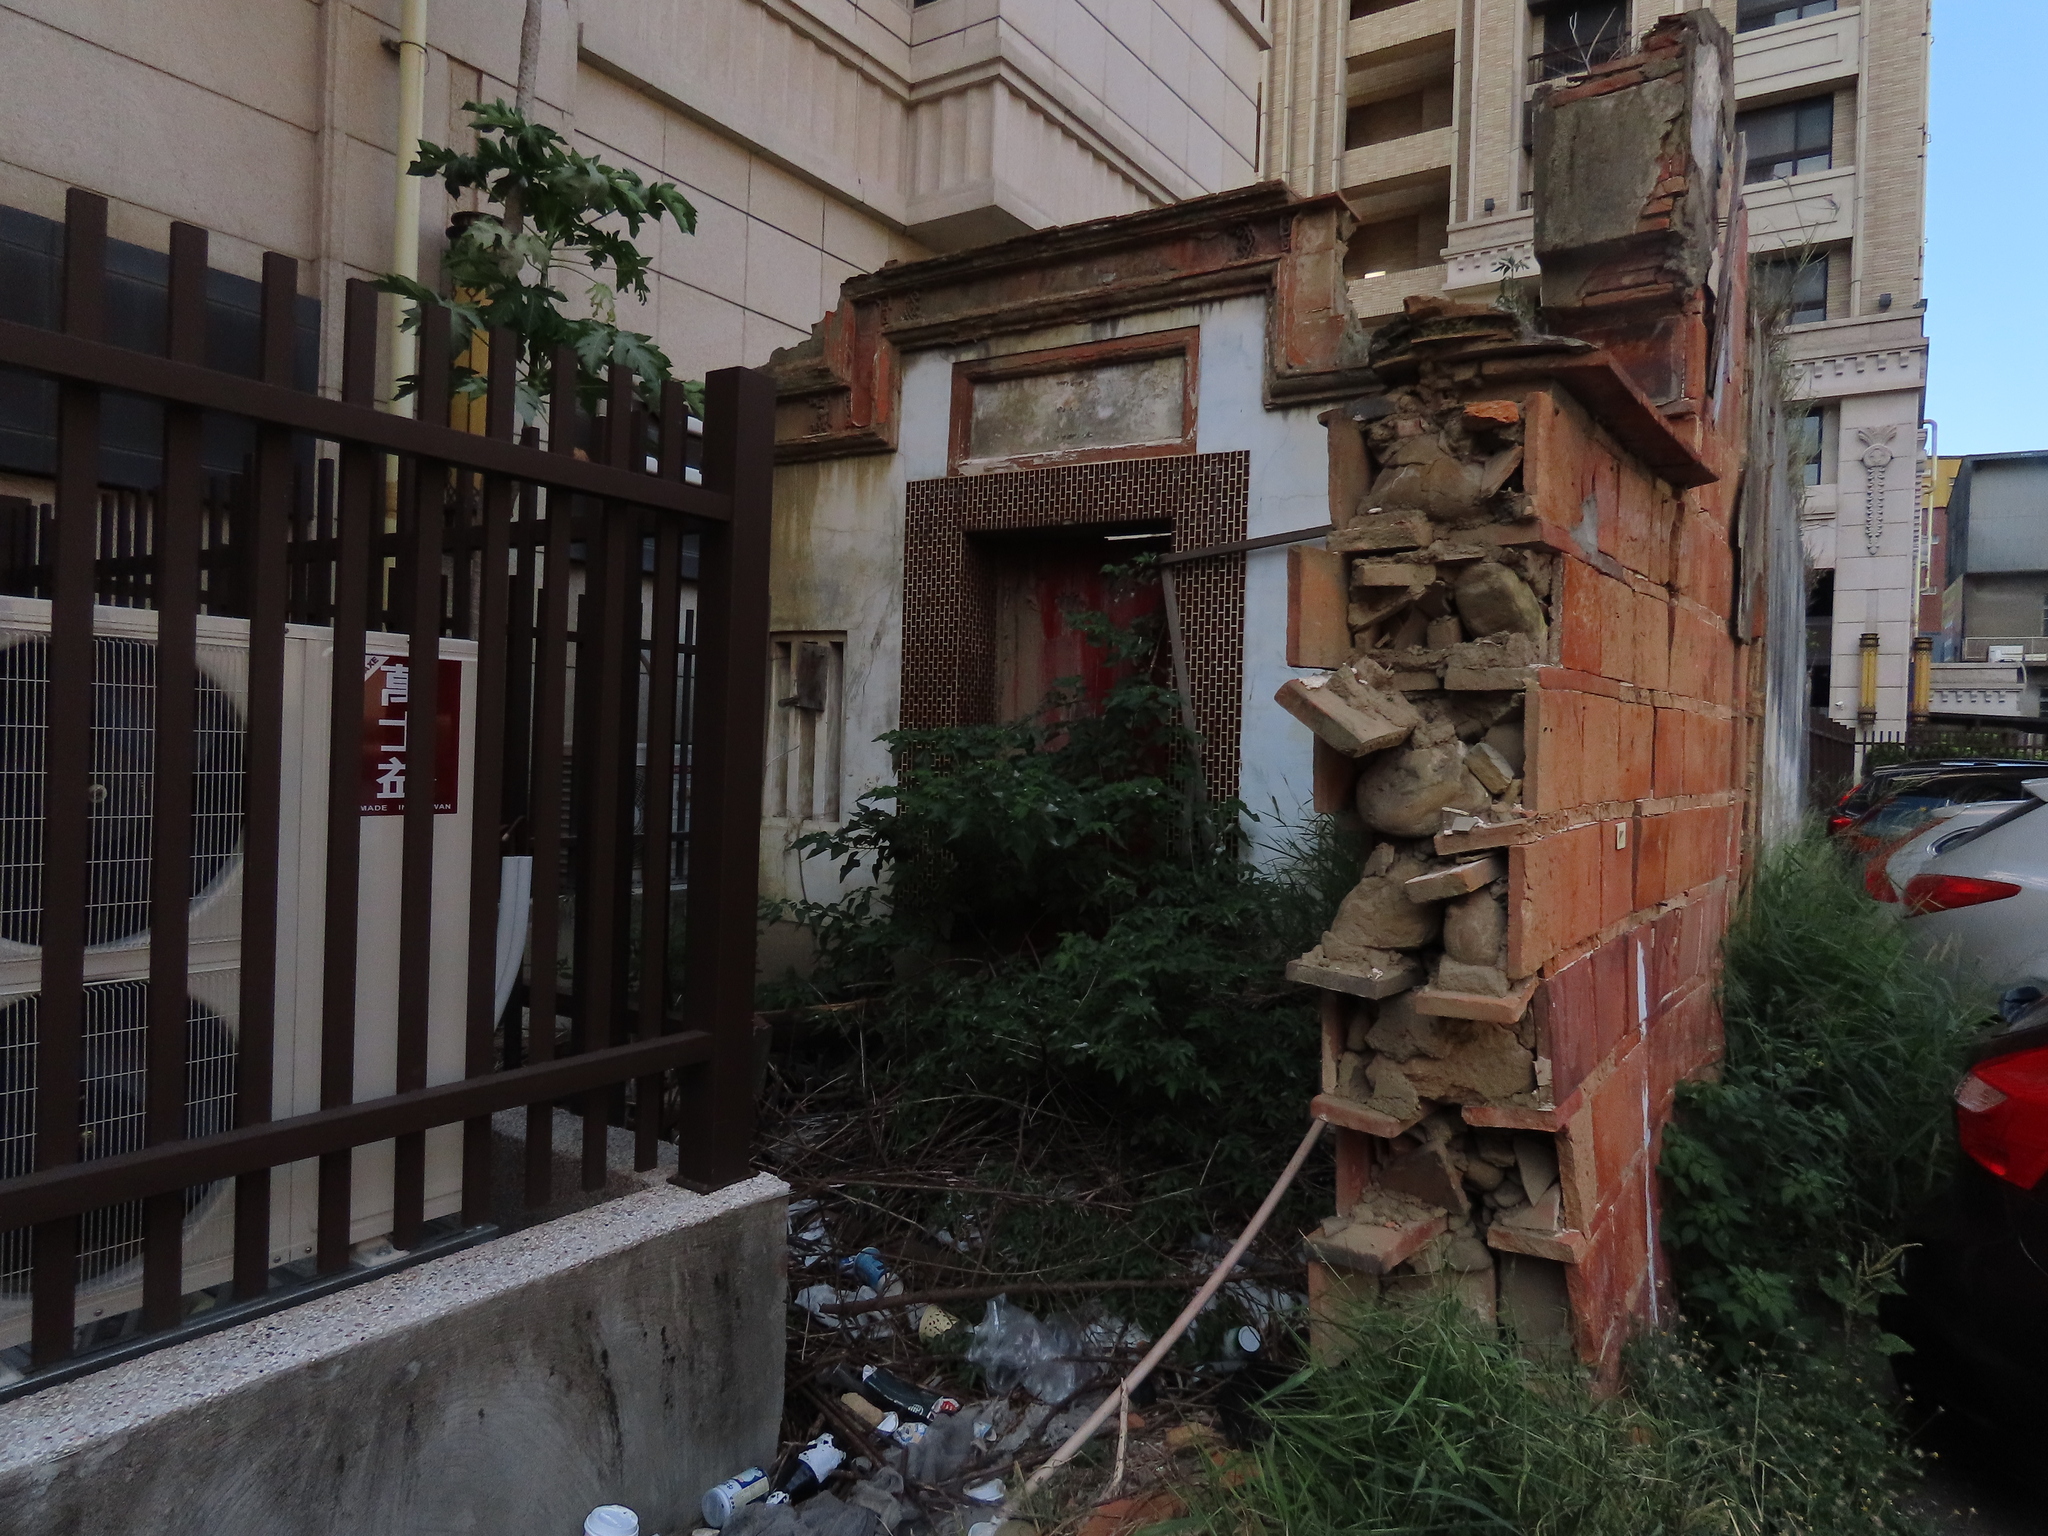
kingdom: Plantae
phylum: Tracheophyta
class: Magnoliopsida
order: Rosales
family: Urticaceae
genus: Boehmeria
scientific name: Boehmeria nivea
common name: Ramie chinese grass
